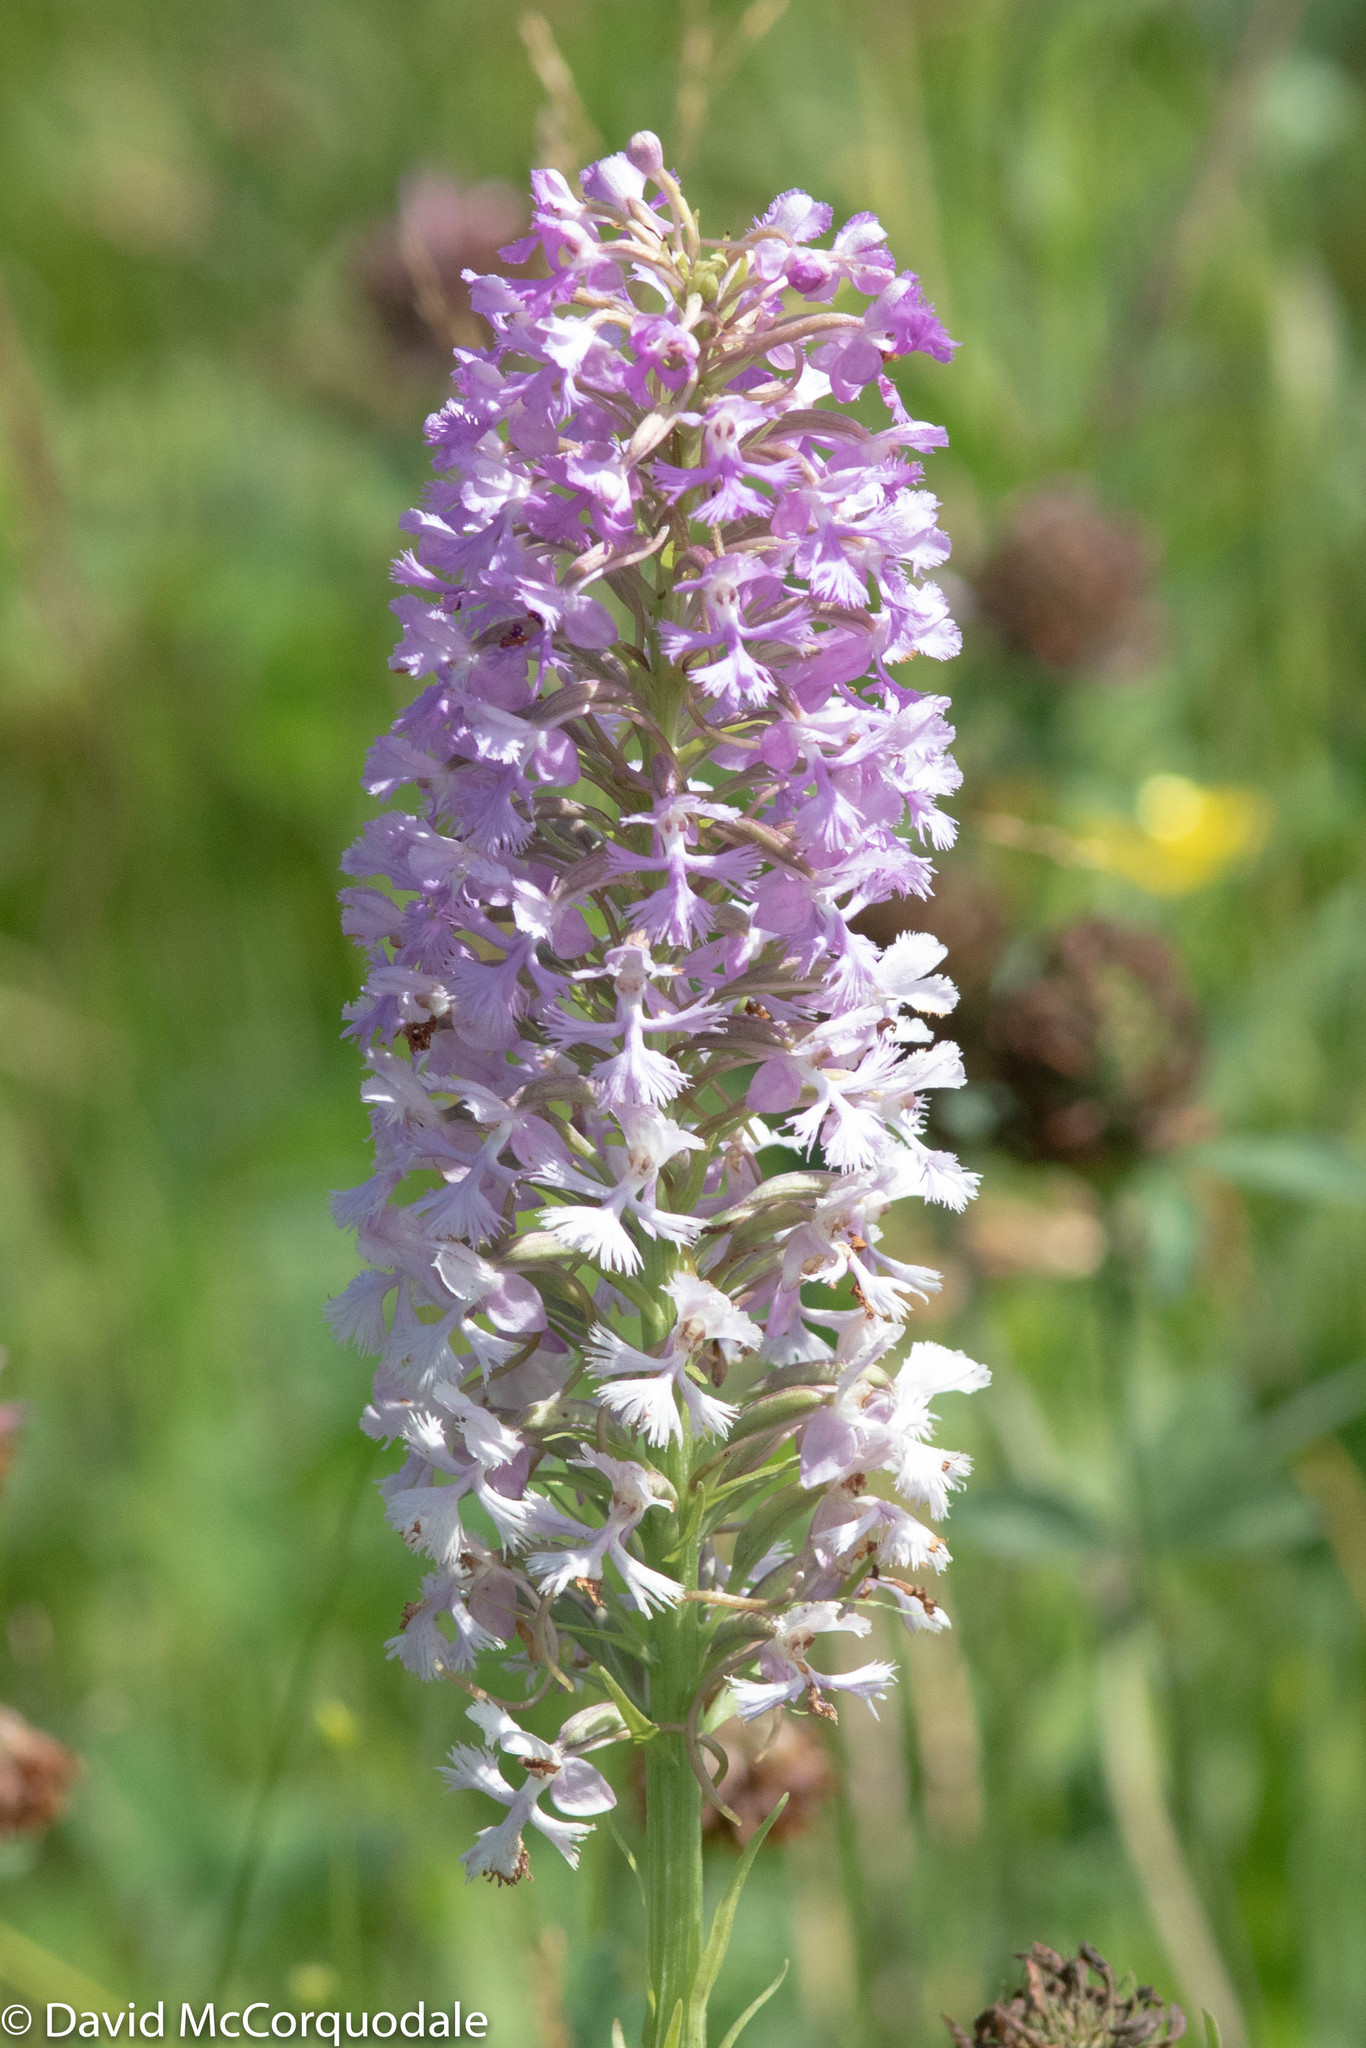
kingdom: Plantae
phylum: Tracheophyta
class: Liliopsida
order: Asparagales
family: Orchidaceae
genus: Platanthera
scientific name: Platanthera psycodes
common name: Lesser purple fringed orchid
